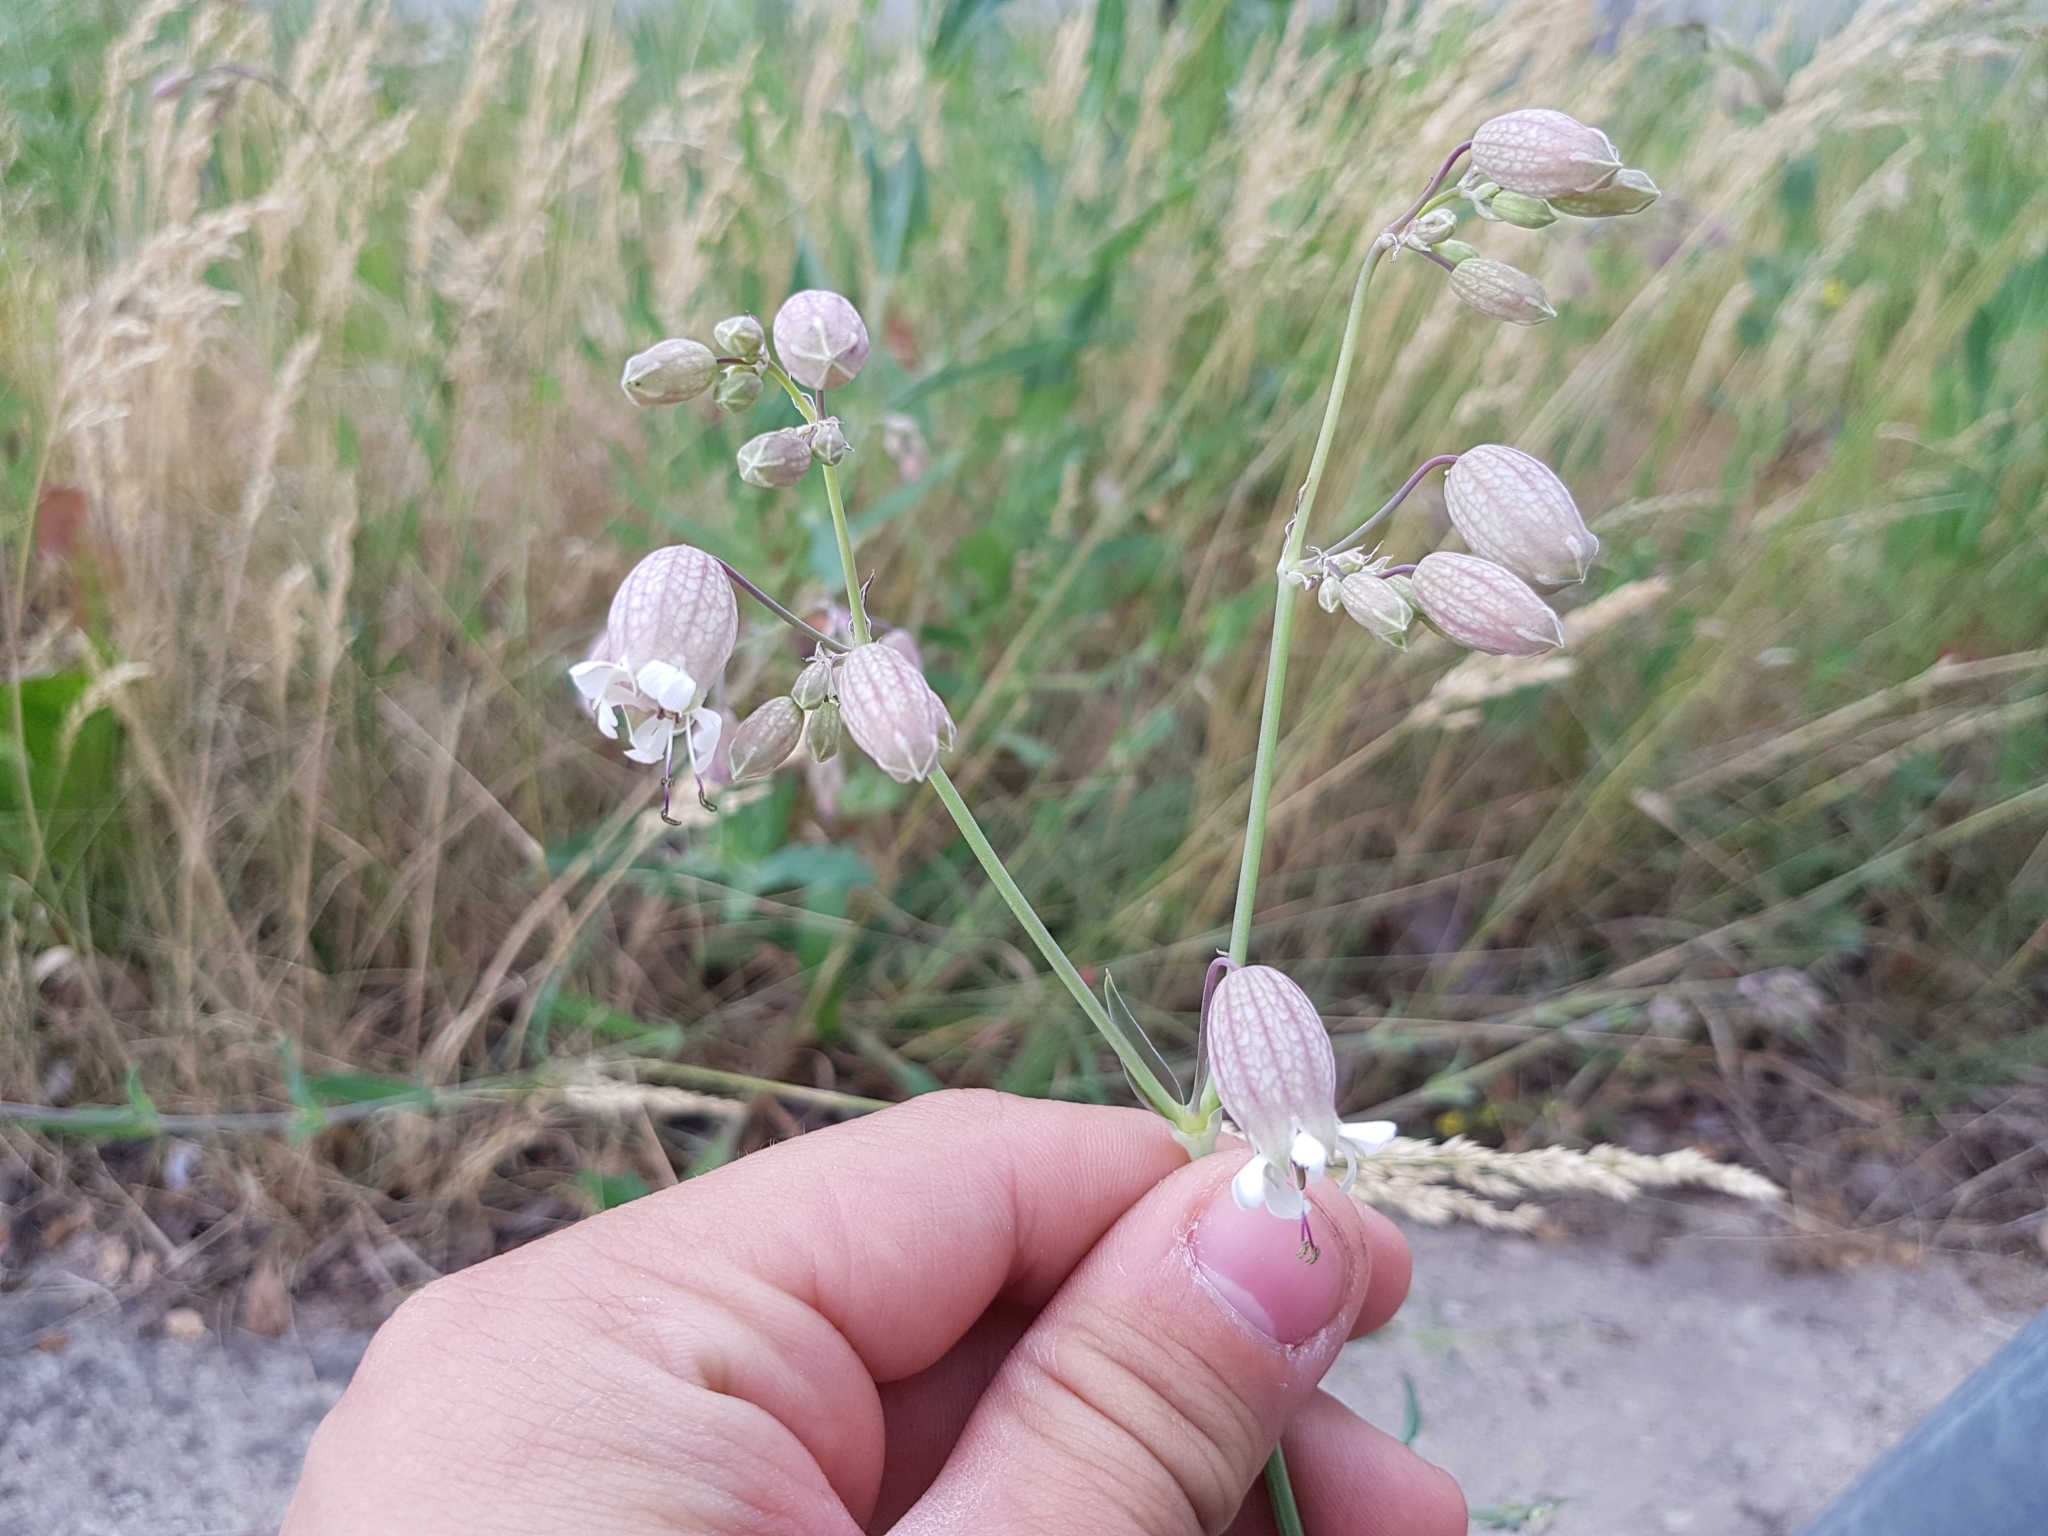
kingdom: Plantae
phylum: Tracheophyta
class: Magnoliopsida
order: Caryophyllales
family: Caryophyllaceae
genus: Silene
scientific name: Silene vulgaris
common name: Bladder campion
